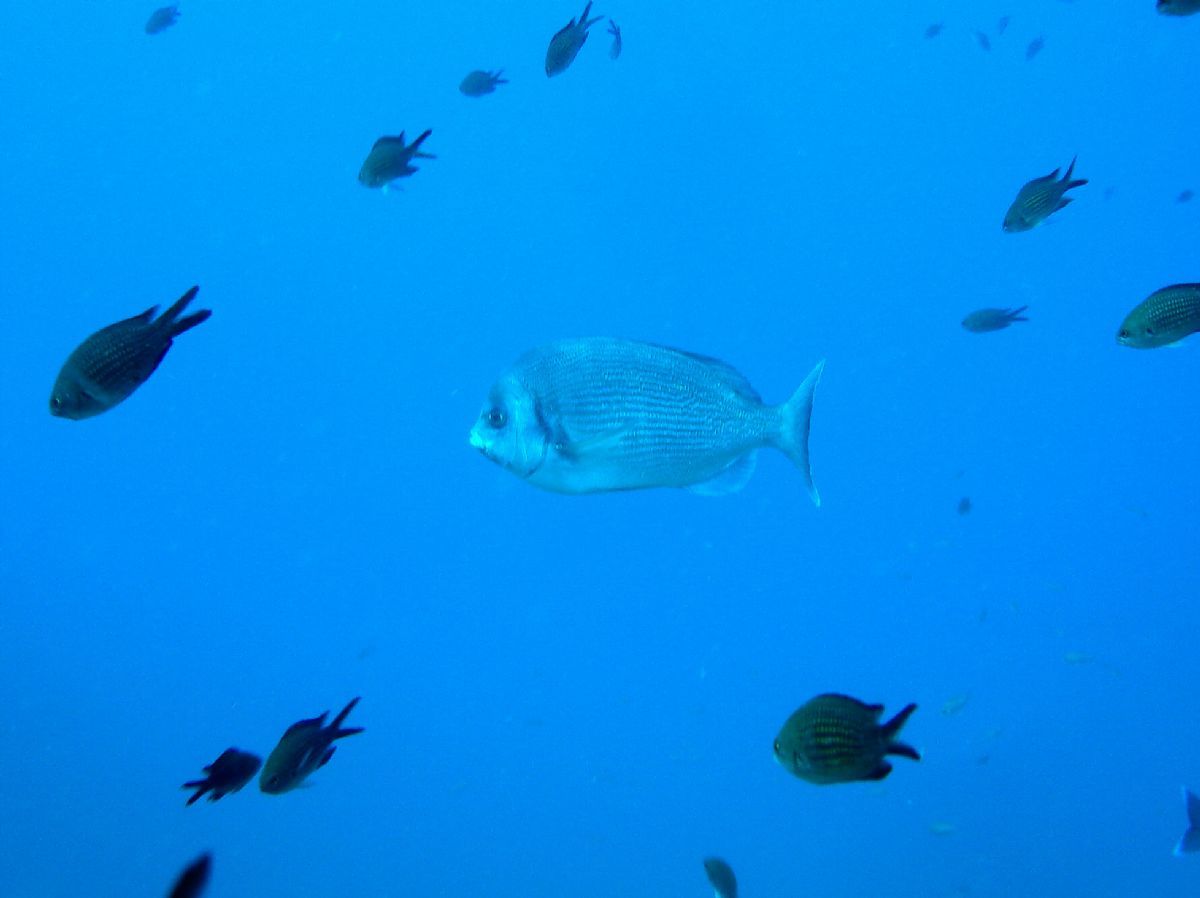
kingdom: Animalia
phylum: Chordata
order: Perciformes
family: Sparidae
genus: Spondyliosoma
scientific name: Spondyliosoma cantharus
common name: Black seabream
